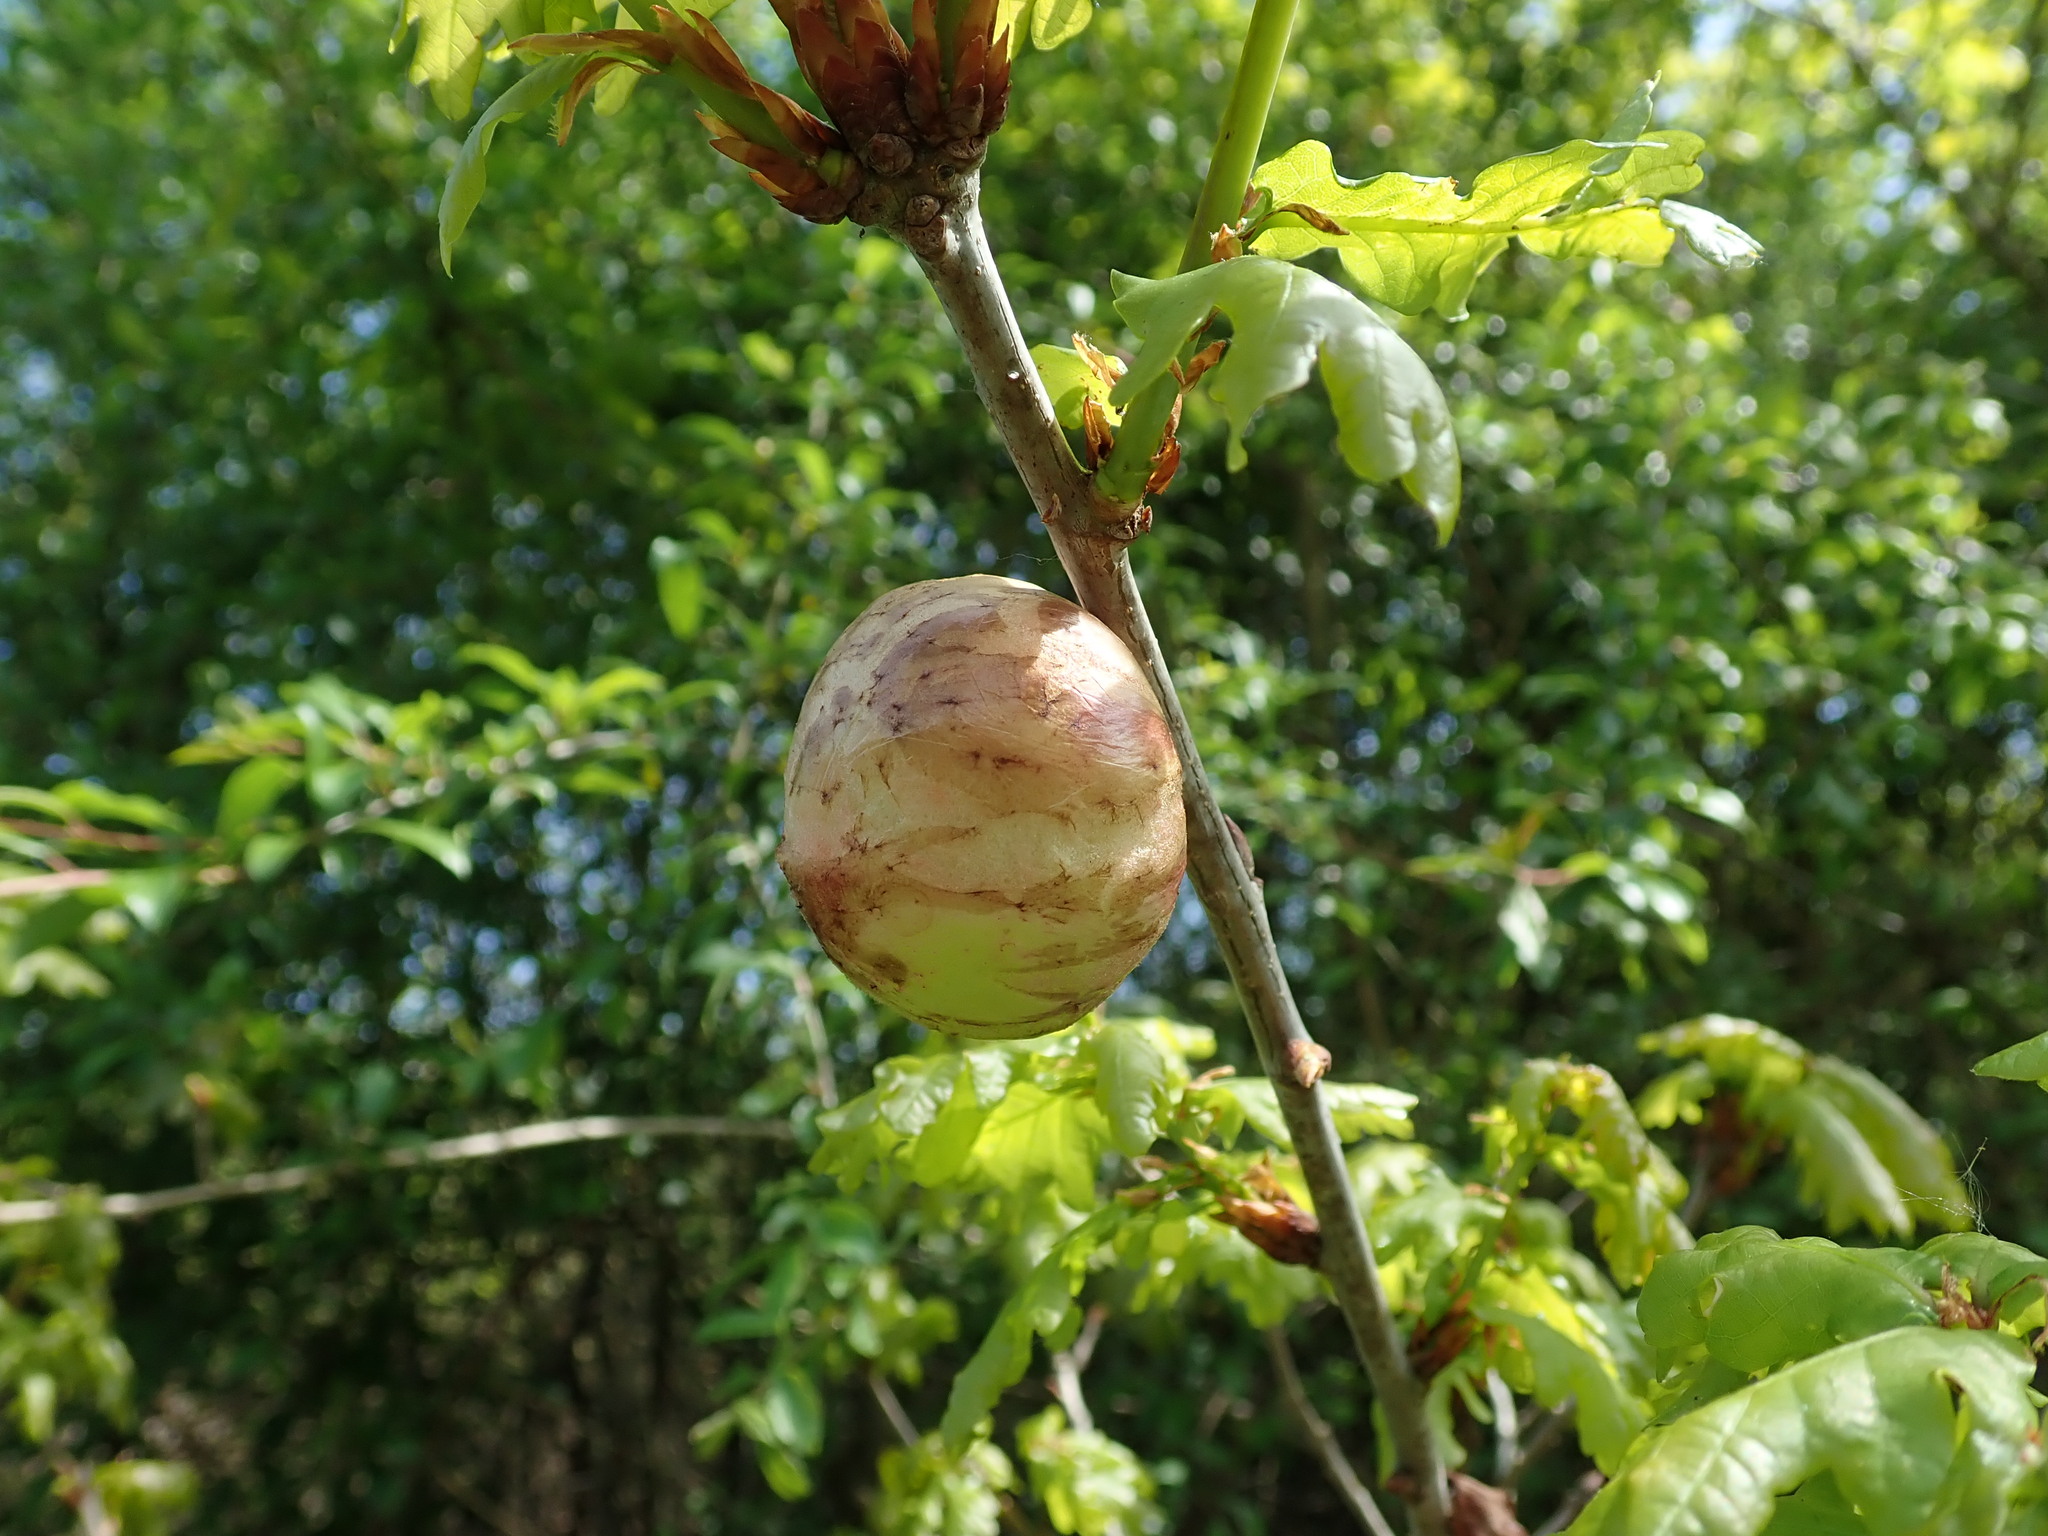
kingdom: Animalia
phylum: Arthropoda
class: Insecta
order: Hymenoptera
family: Cynipidae
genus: Biorhiza
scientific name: Biorhiza pallida
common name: Oak apple
